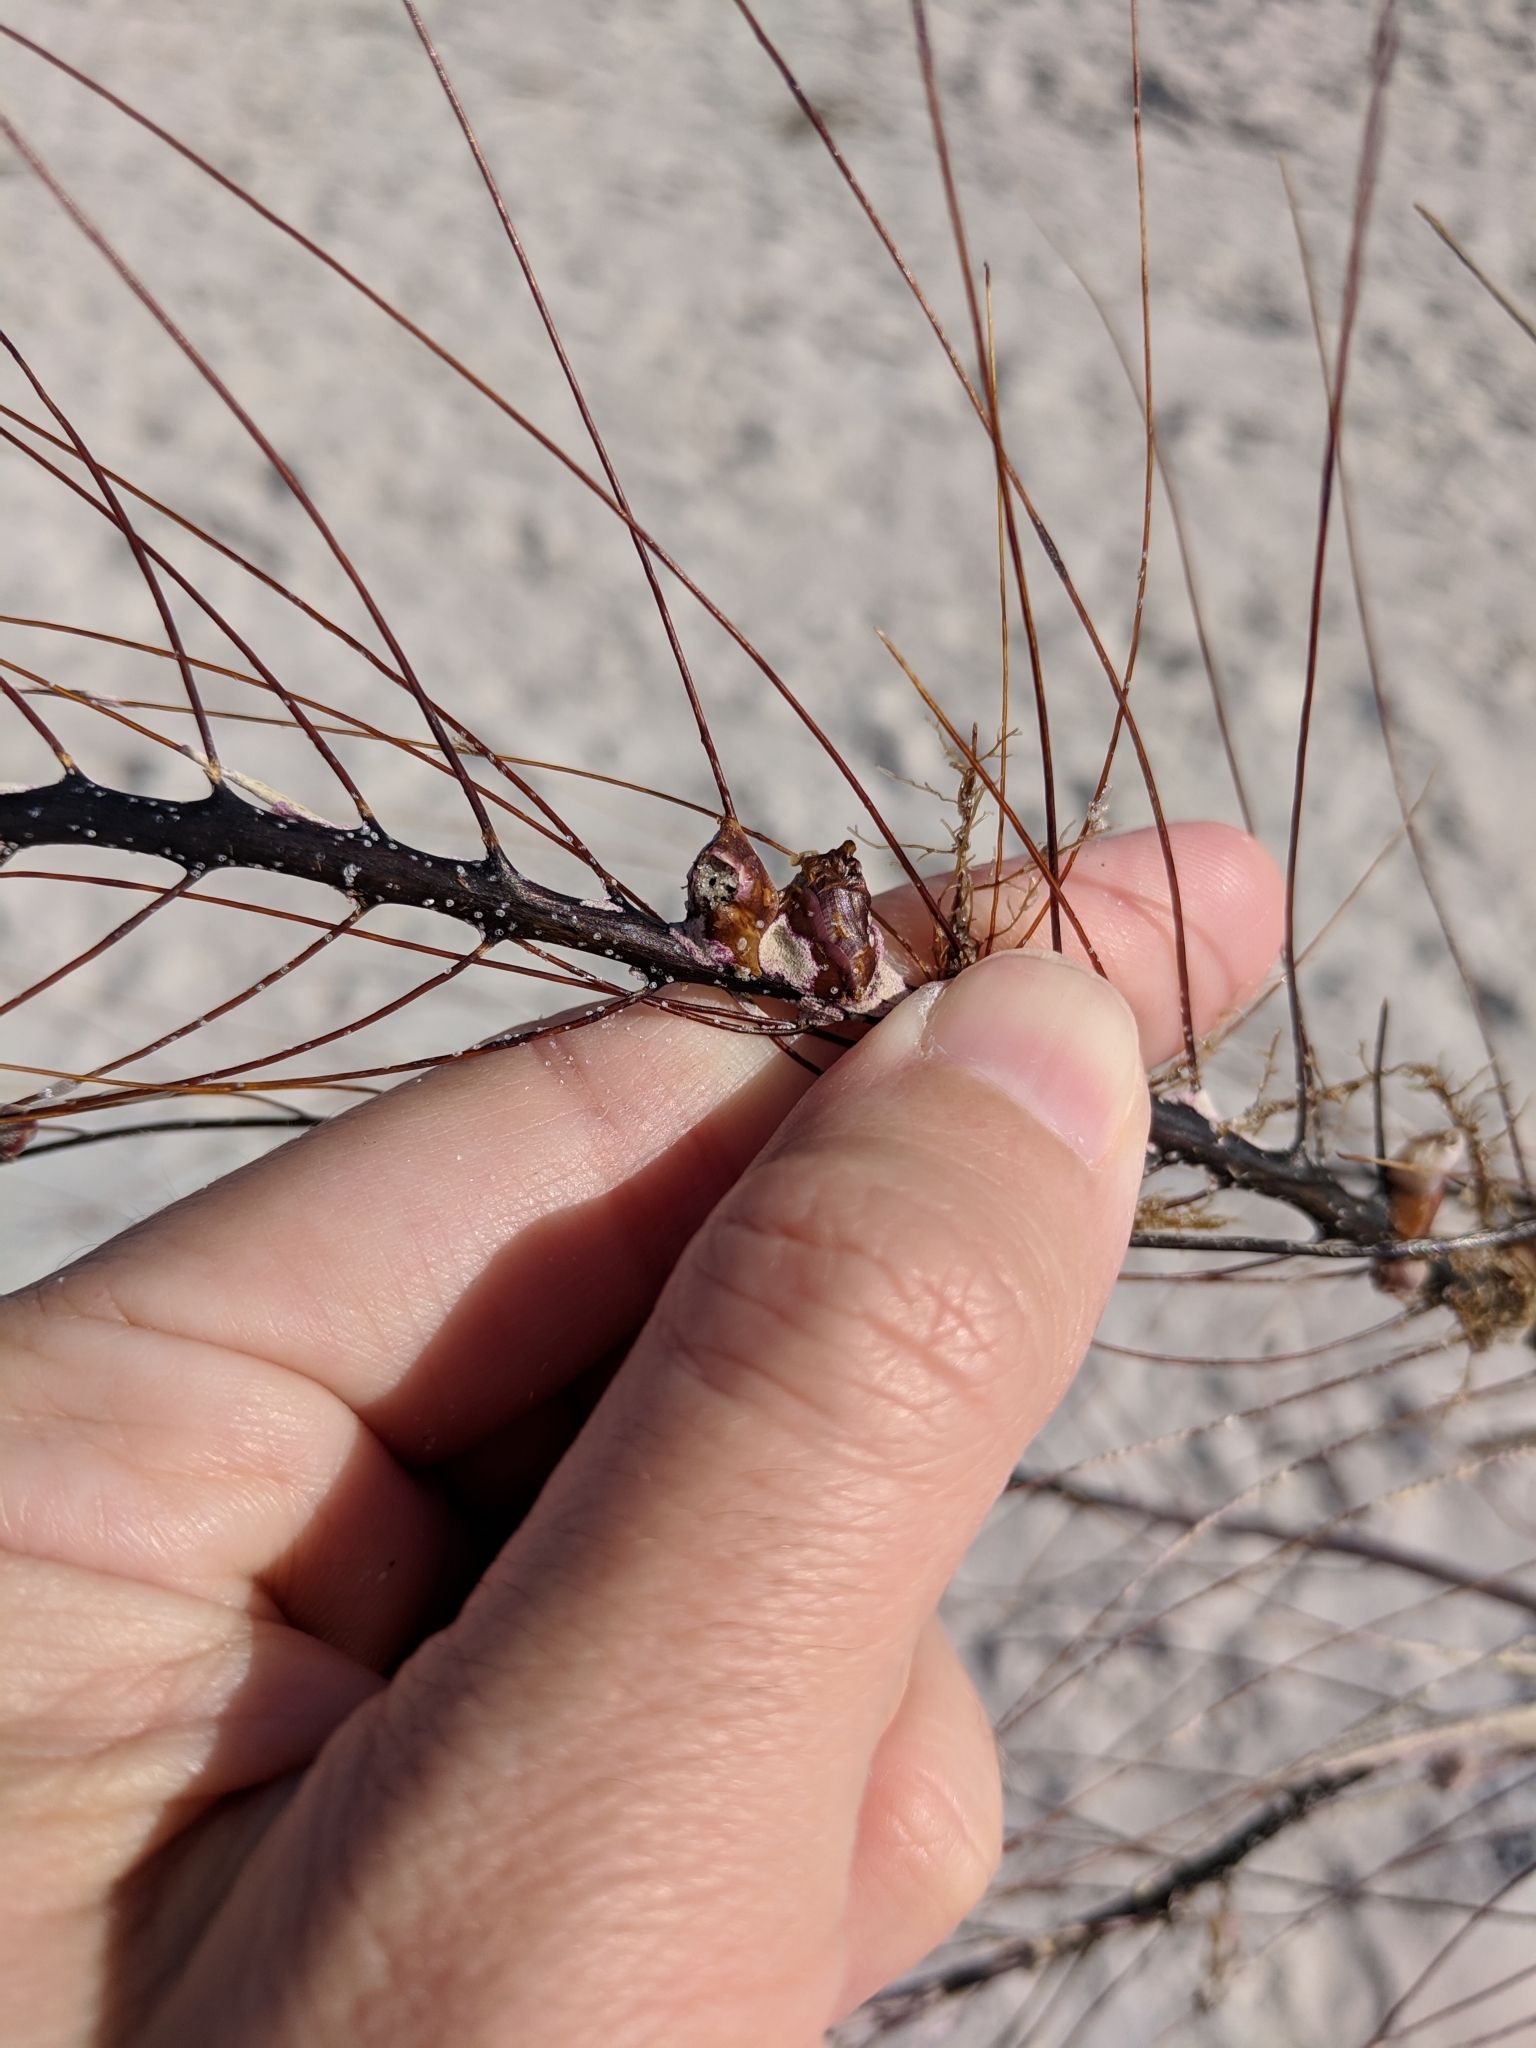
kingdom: Animalia
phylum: Arthropoda
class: Maxillopoda
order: Sessilia
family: Archaeobalanidae
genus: Conopea
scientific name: Conopea galeata
